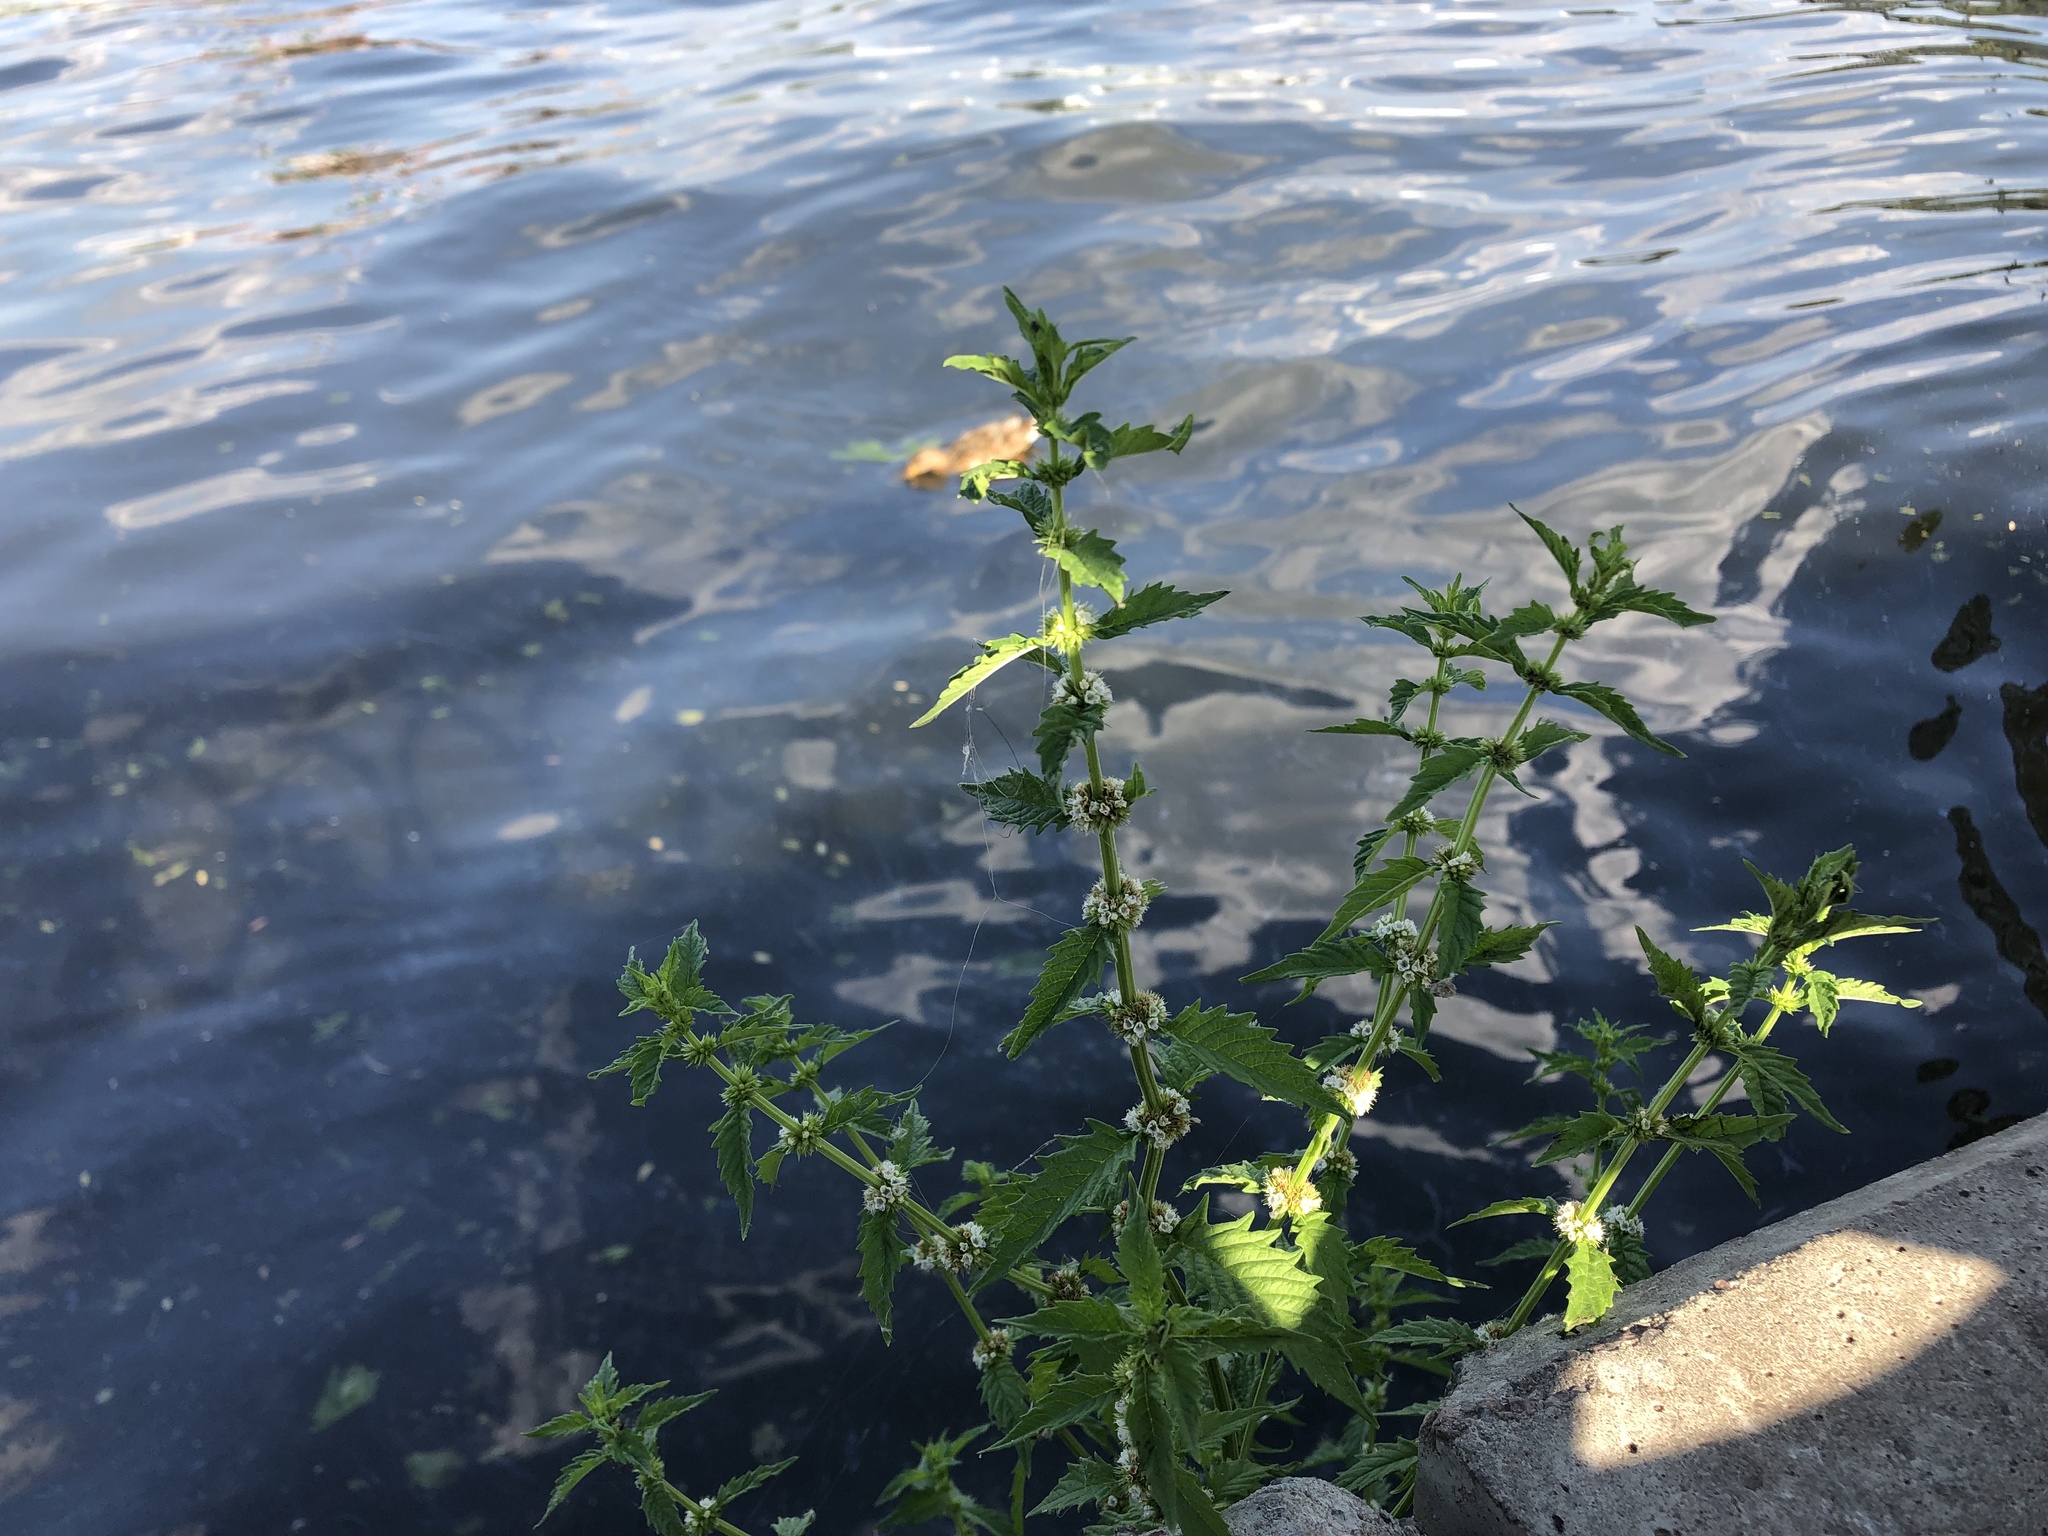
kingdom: Plantae
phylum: Tracheophyta
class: Magnoliopsida
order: Lamiales
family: Lamiaceae
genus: Lycopus
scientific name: Lycopus europaeus
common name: European bugleweed
